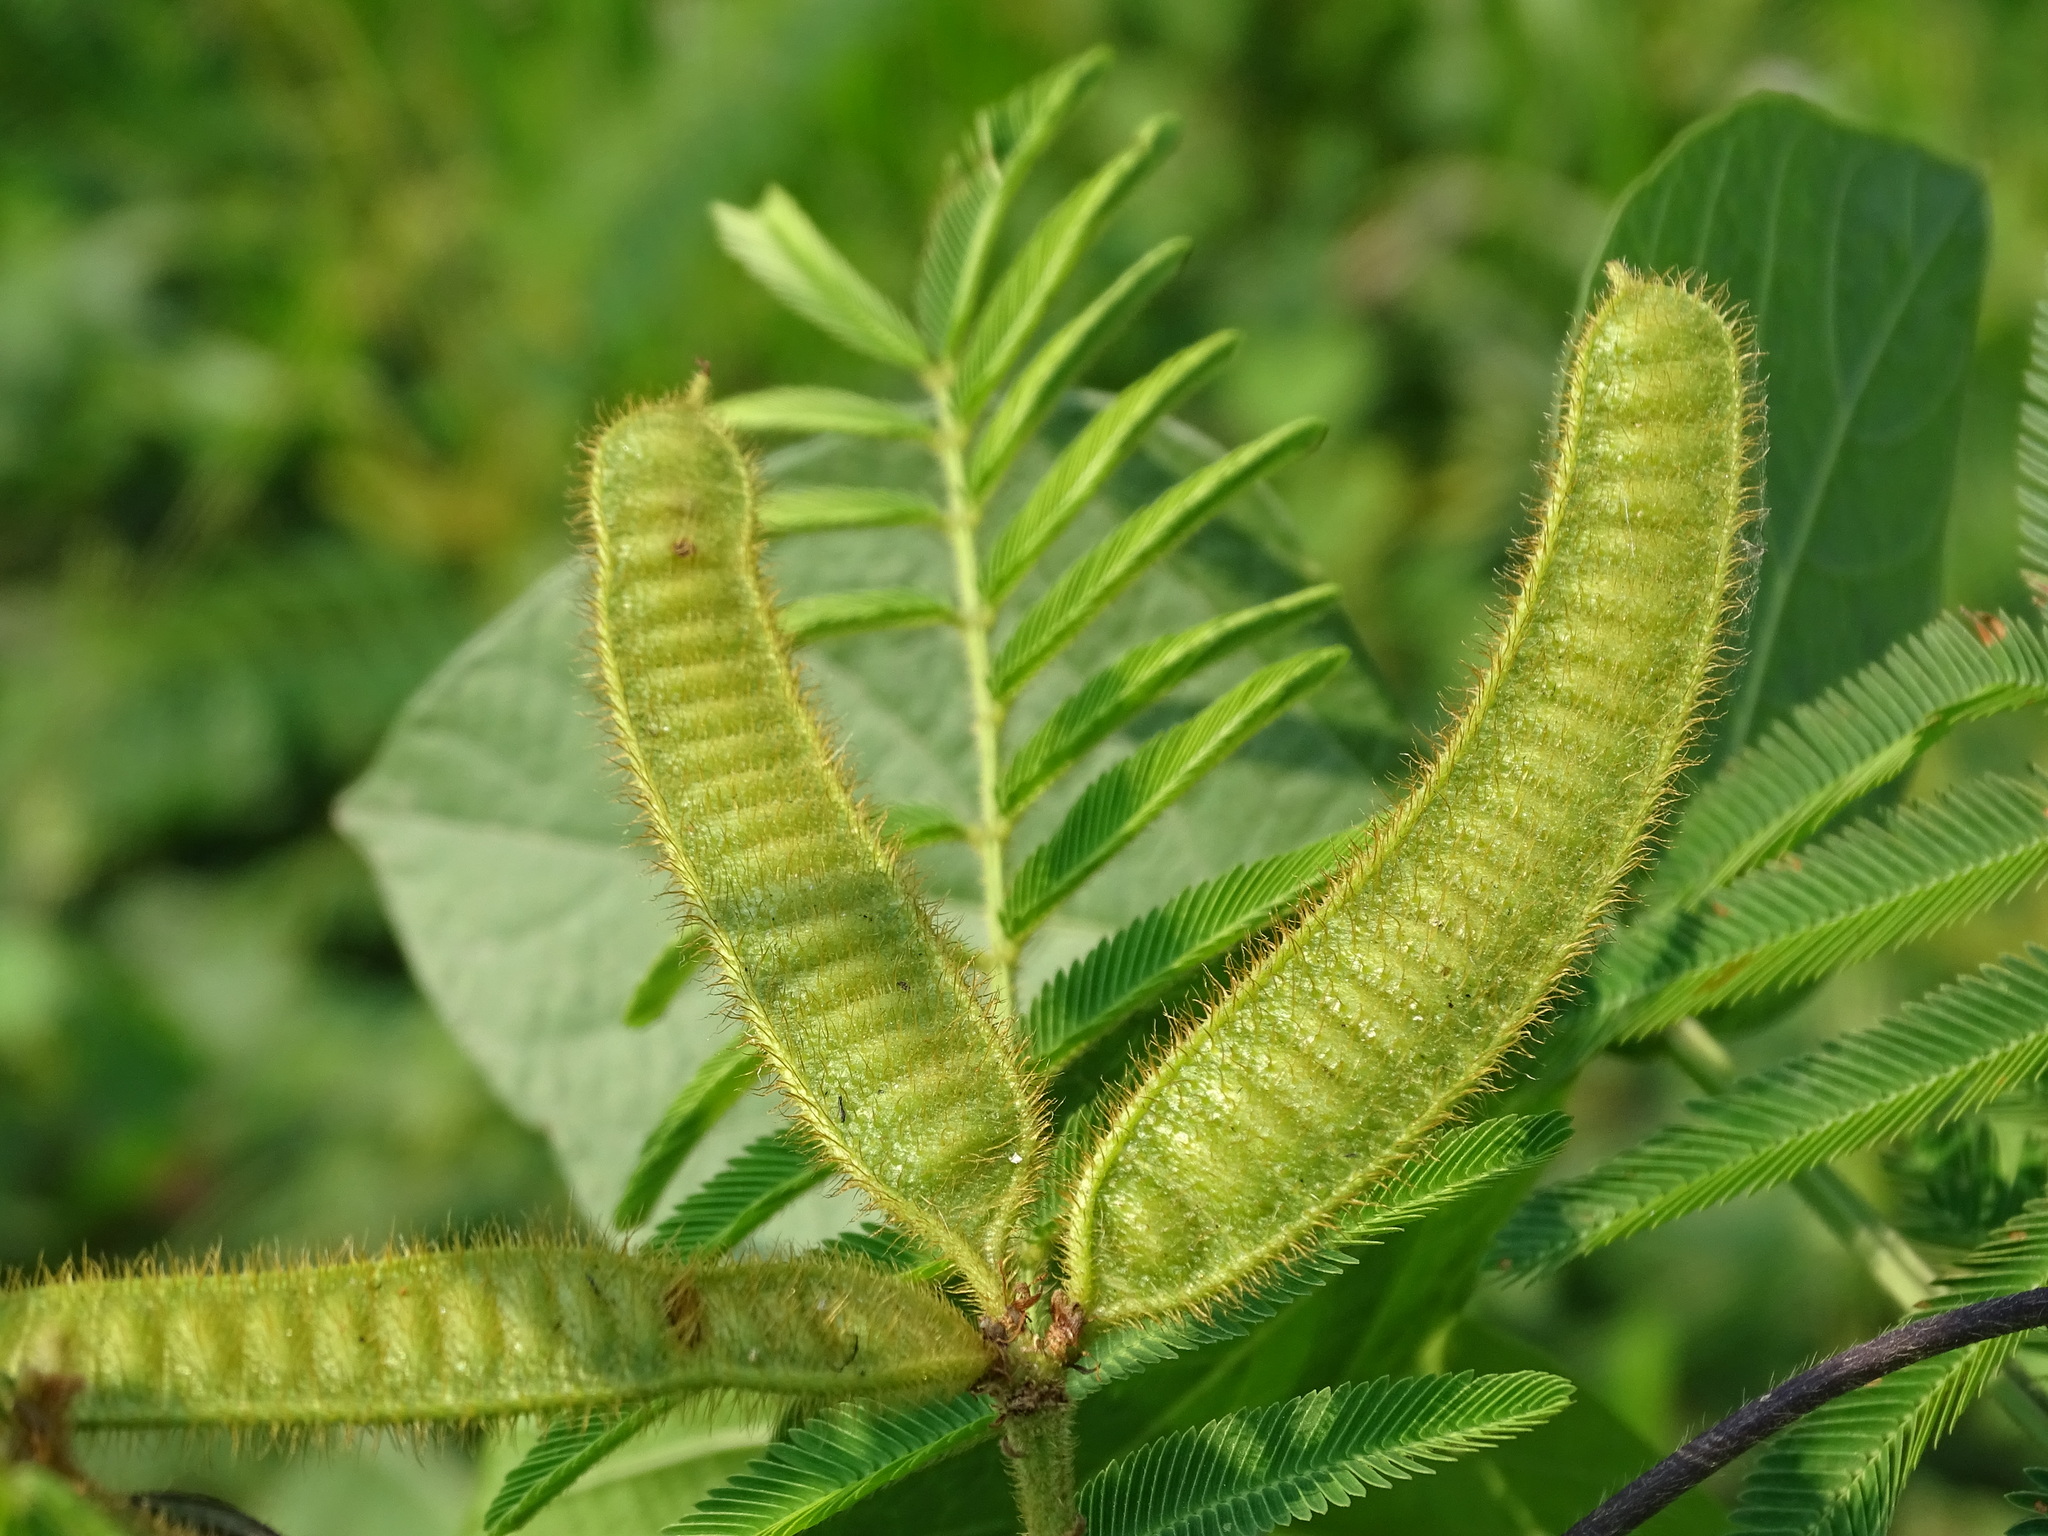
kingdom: Plantae
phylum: Tracheophyta
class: Magnoliopsida
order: Fabales
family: Fabaceae
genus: Mimosa
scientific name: Mimosa pigra
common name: Black mimosa
